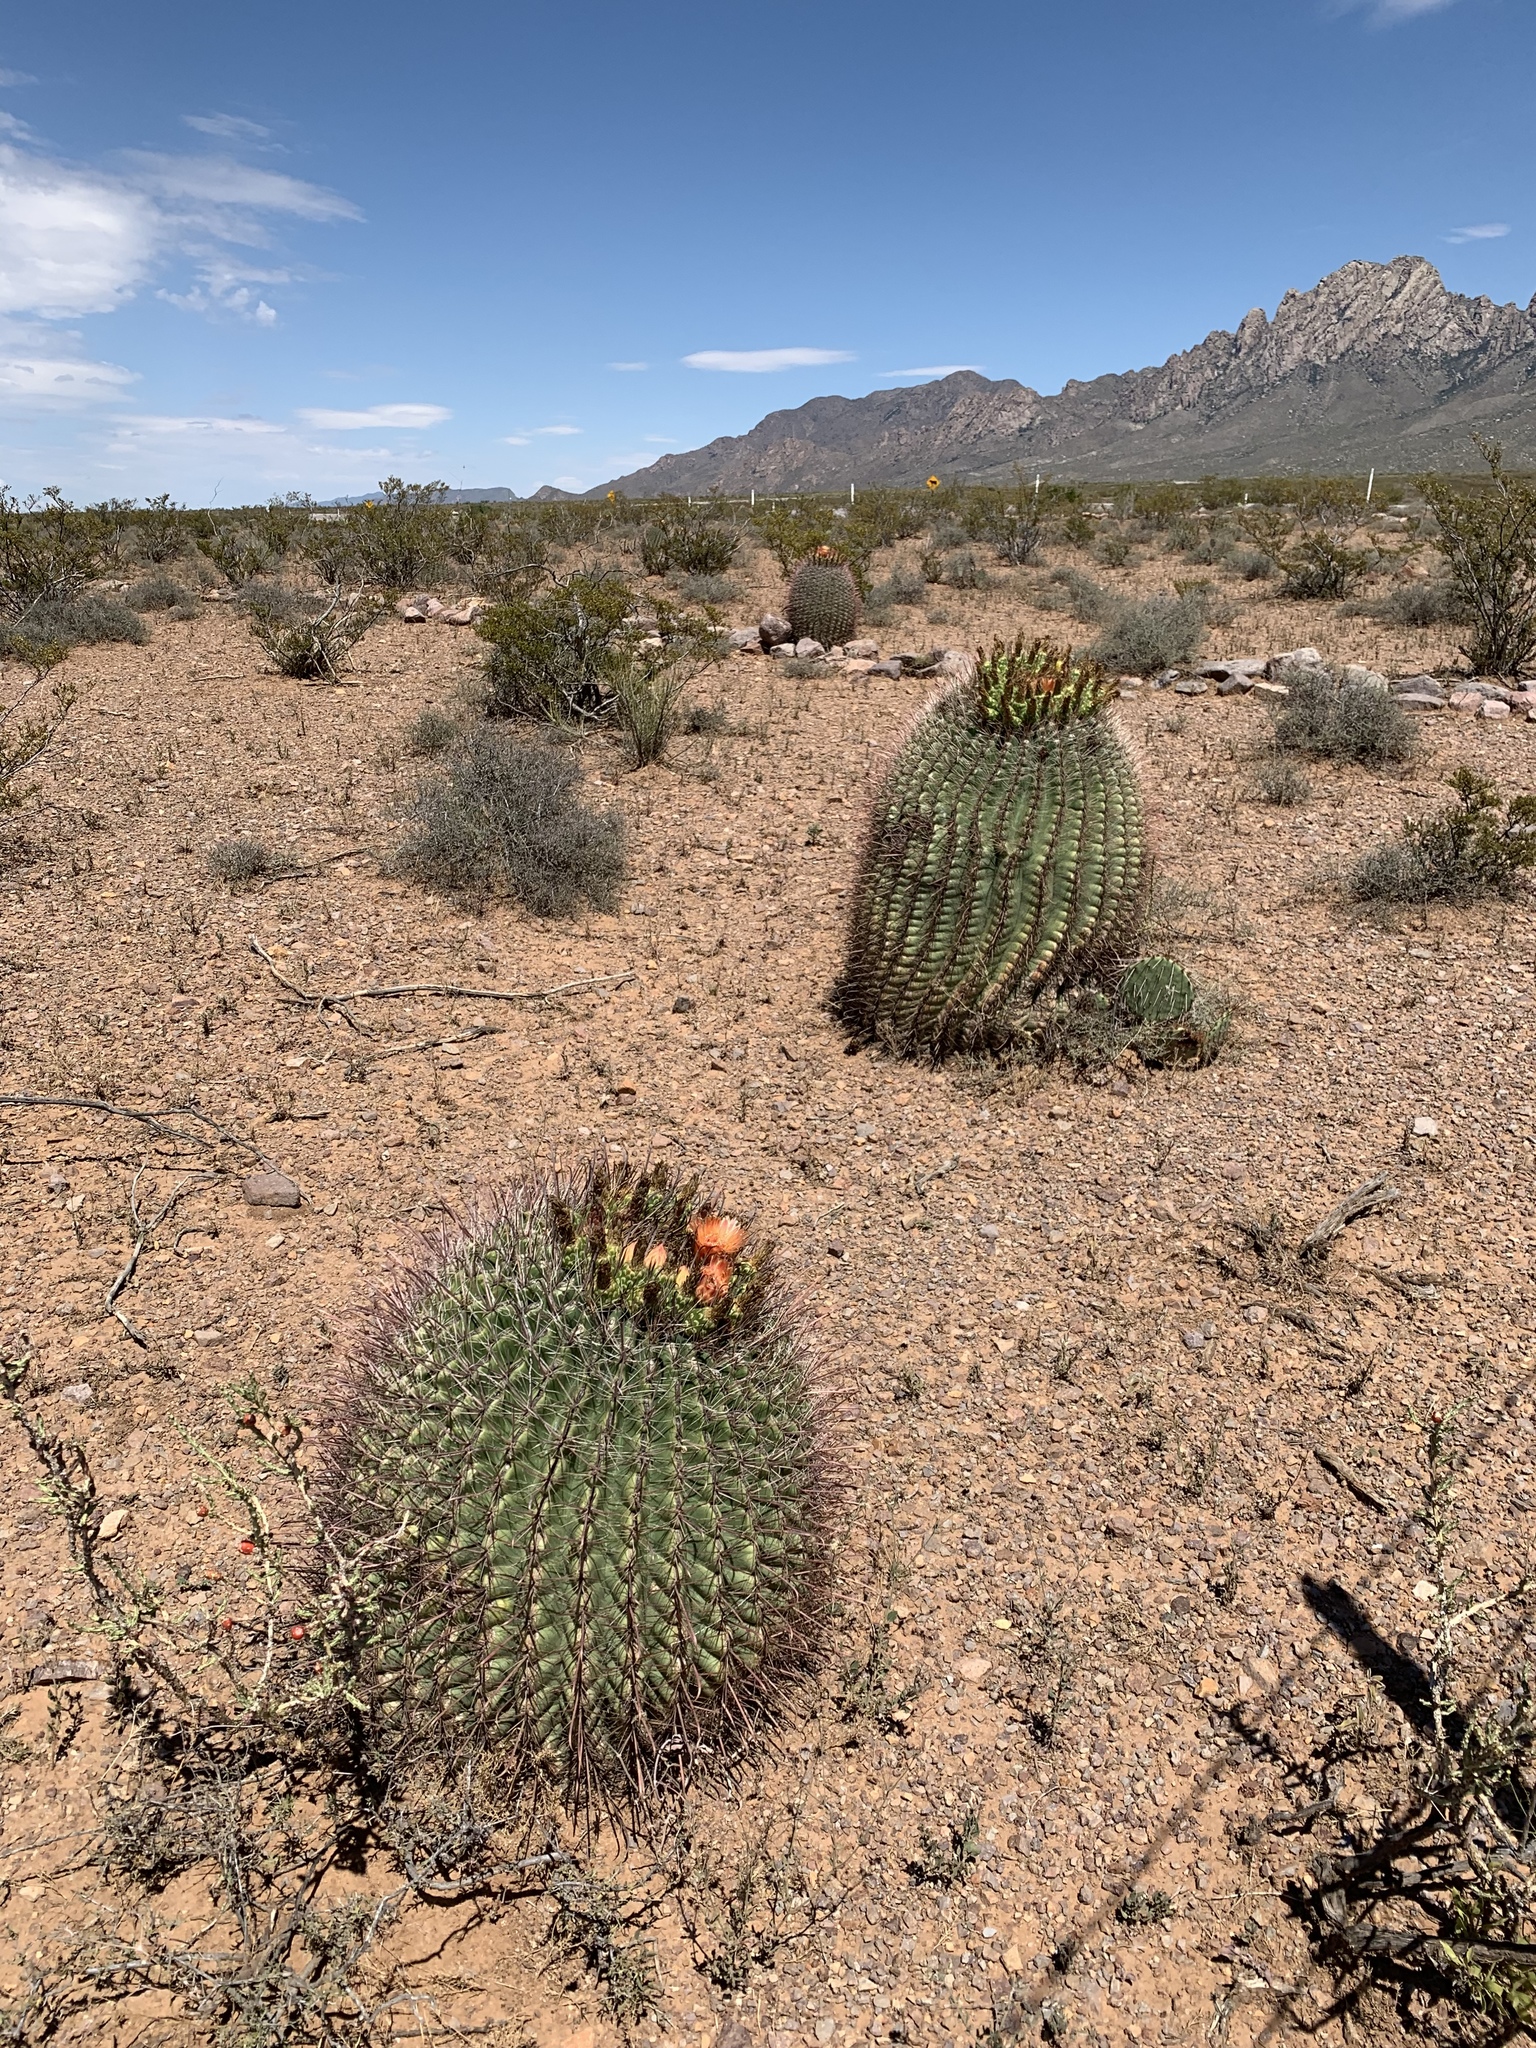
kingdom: Plantae
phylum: Tracheophyta
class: Magnoliopsida
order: Caryophyllales
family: Cactaceae
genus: Ferocactus
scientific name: Ferocactus wislizeni
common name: Candy barrel cactus
